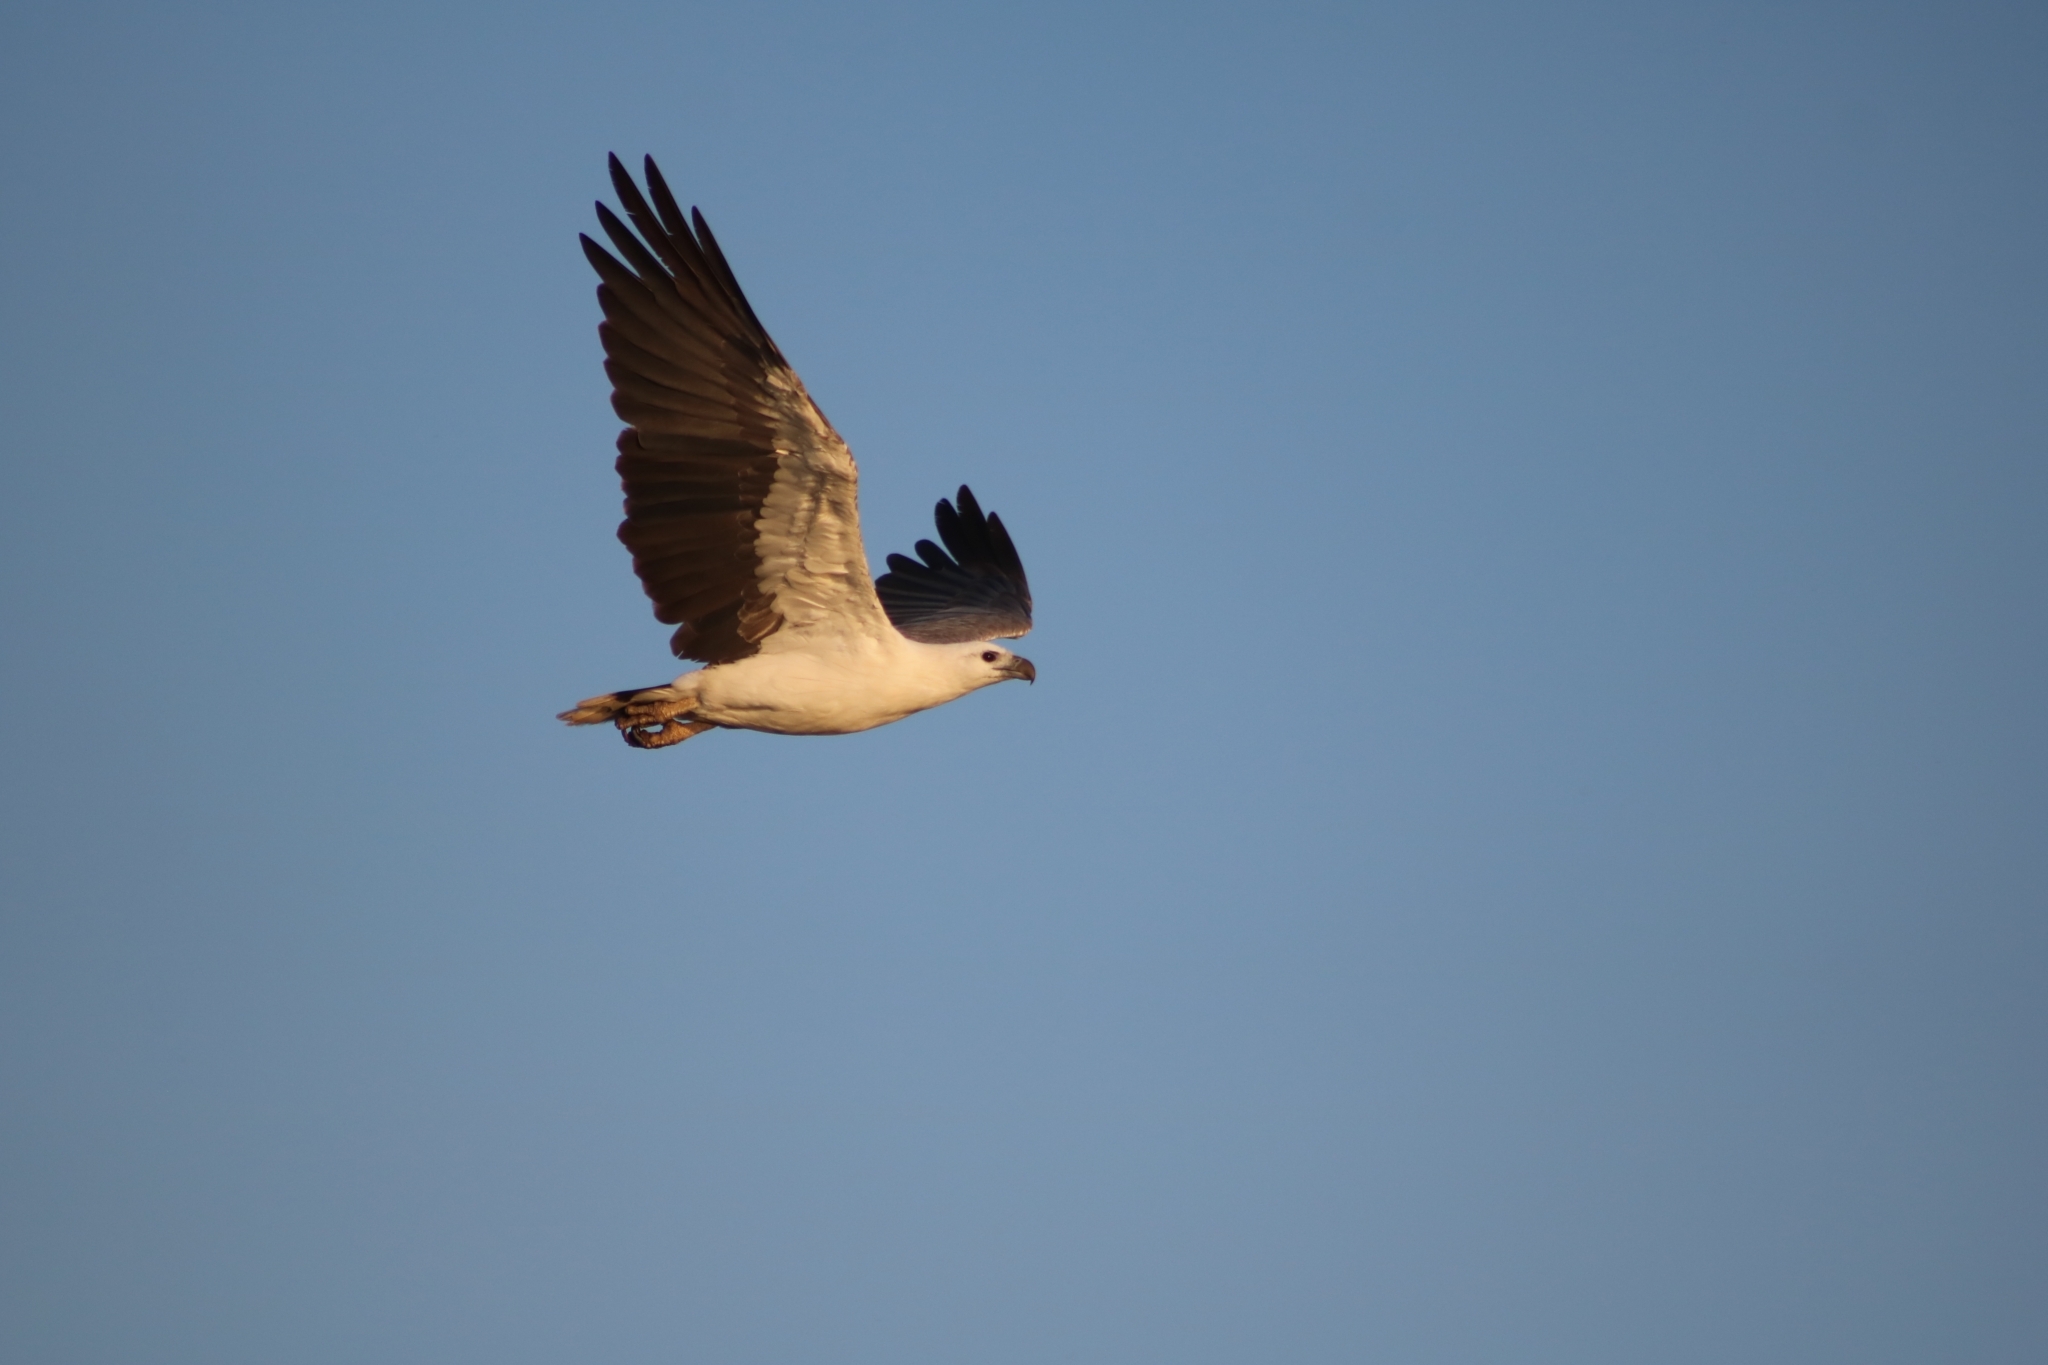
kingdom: Animalia
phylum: Chordata
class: Aves
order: Accipitriformes
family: Accipitridae
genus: Haliaeetus
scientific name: Haliaeetus leucogaster
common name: White-bellied sea eagle
